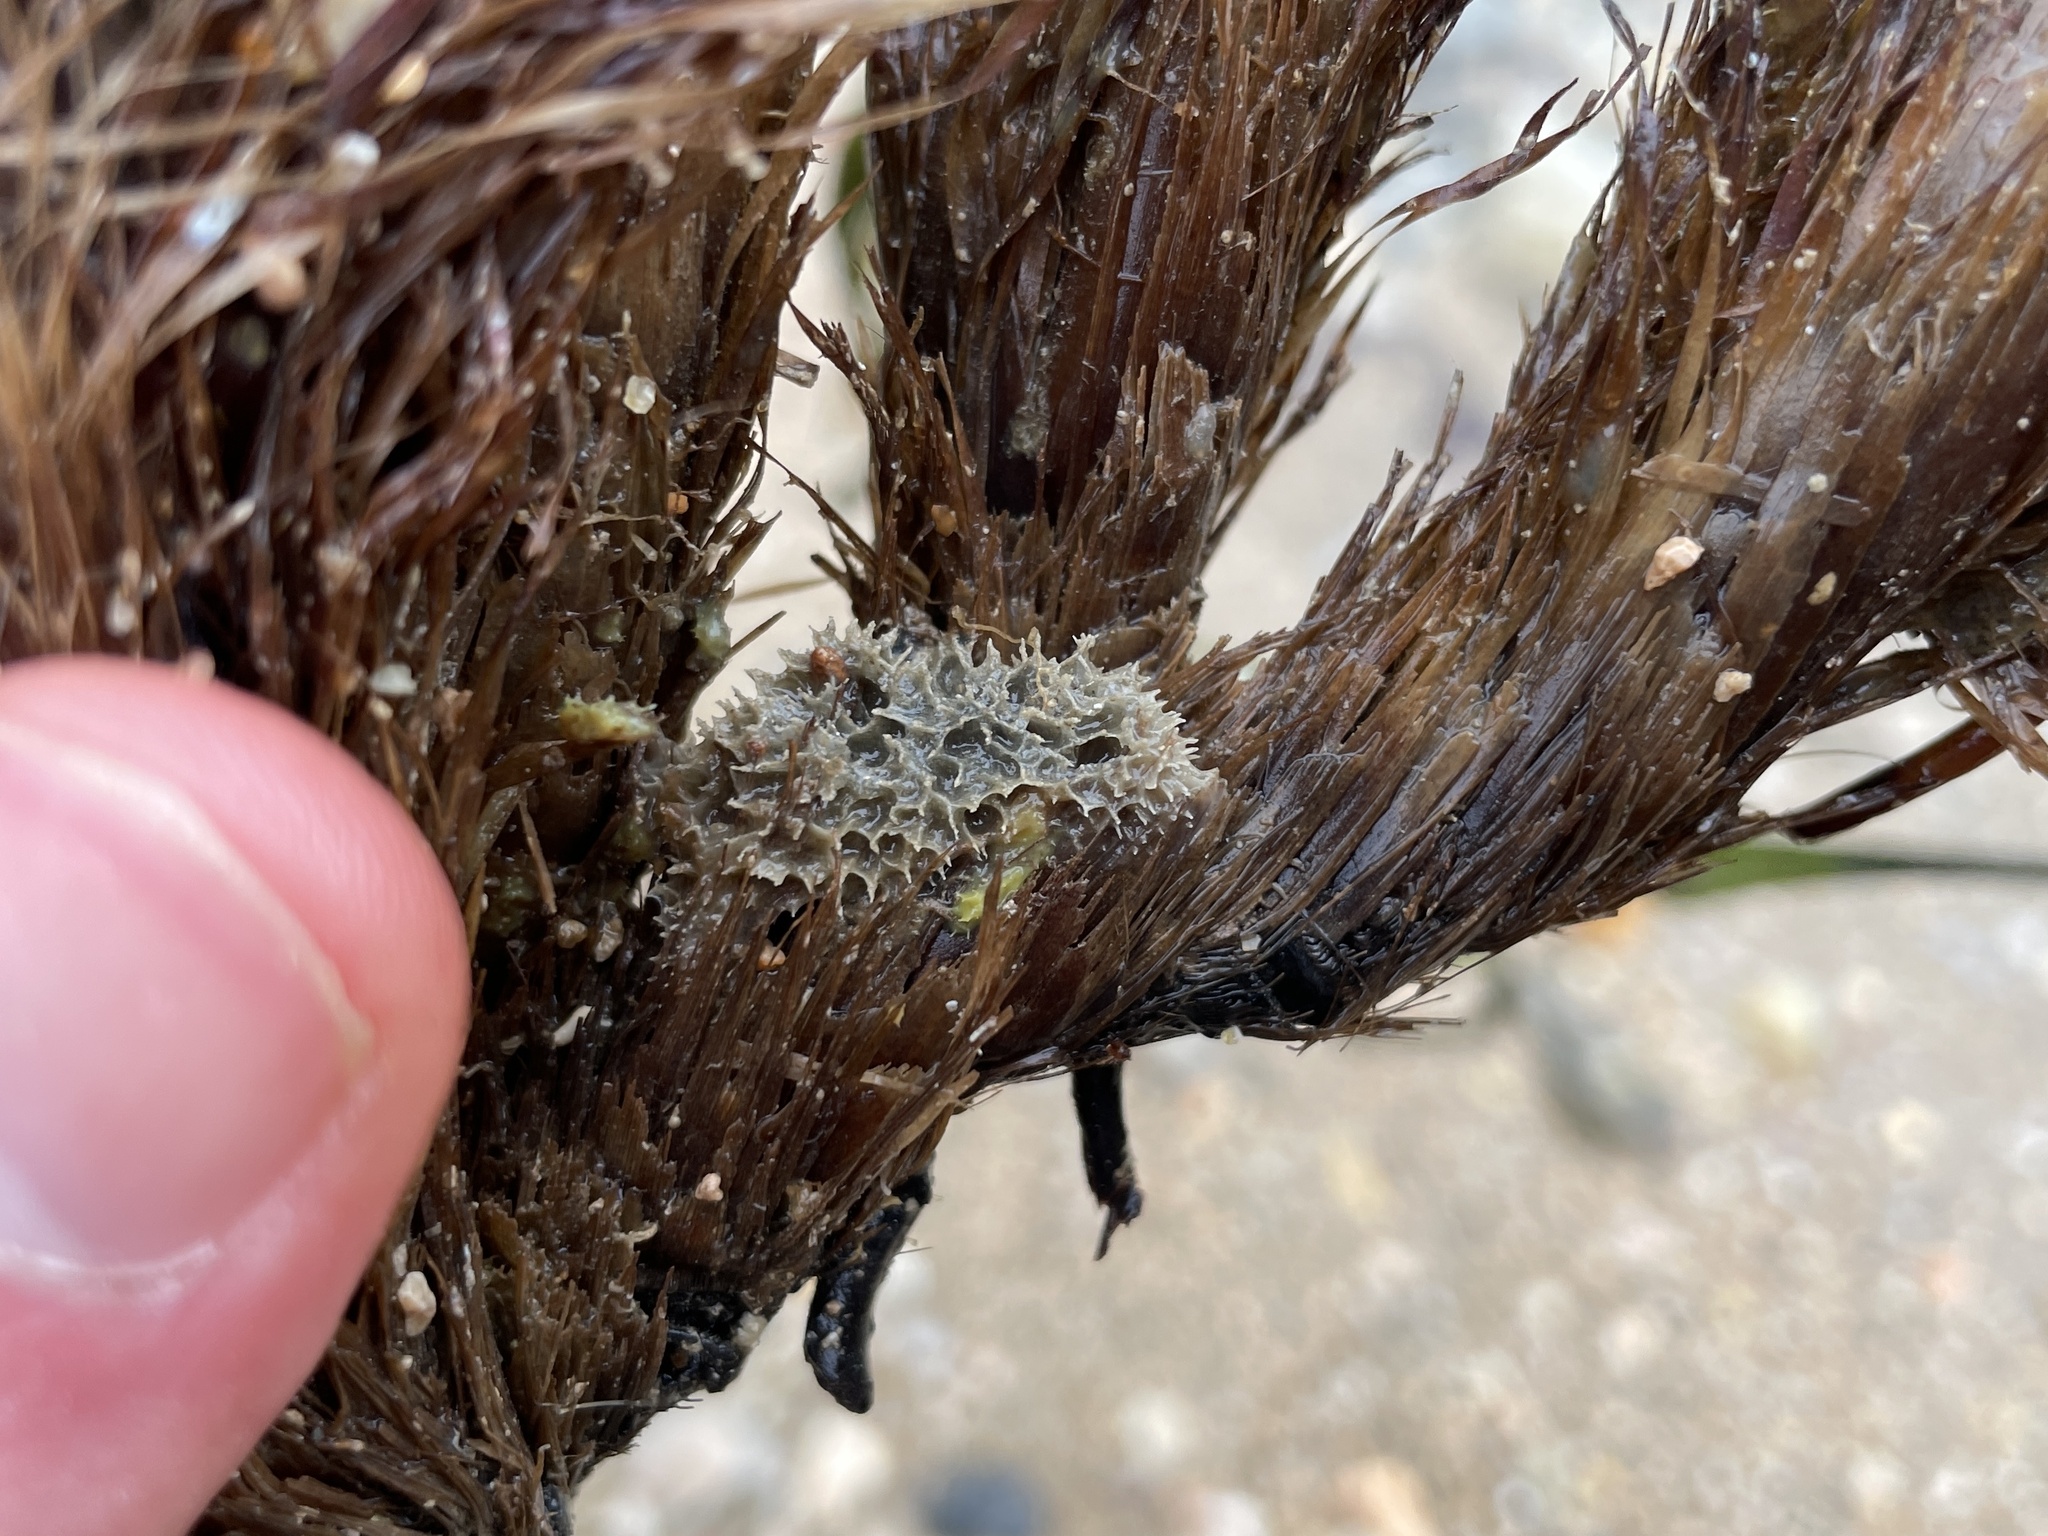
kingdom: Animalia
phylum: Porifera
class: Demospongiae
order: Dictyoceratida
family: Dysideidae
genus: Dysidea
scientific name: Dysidea fragilis
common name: Goosebump sponge
